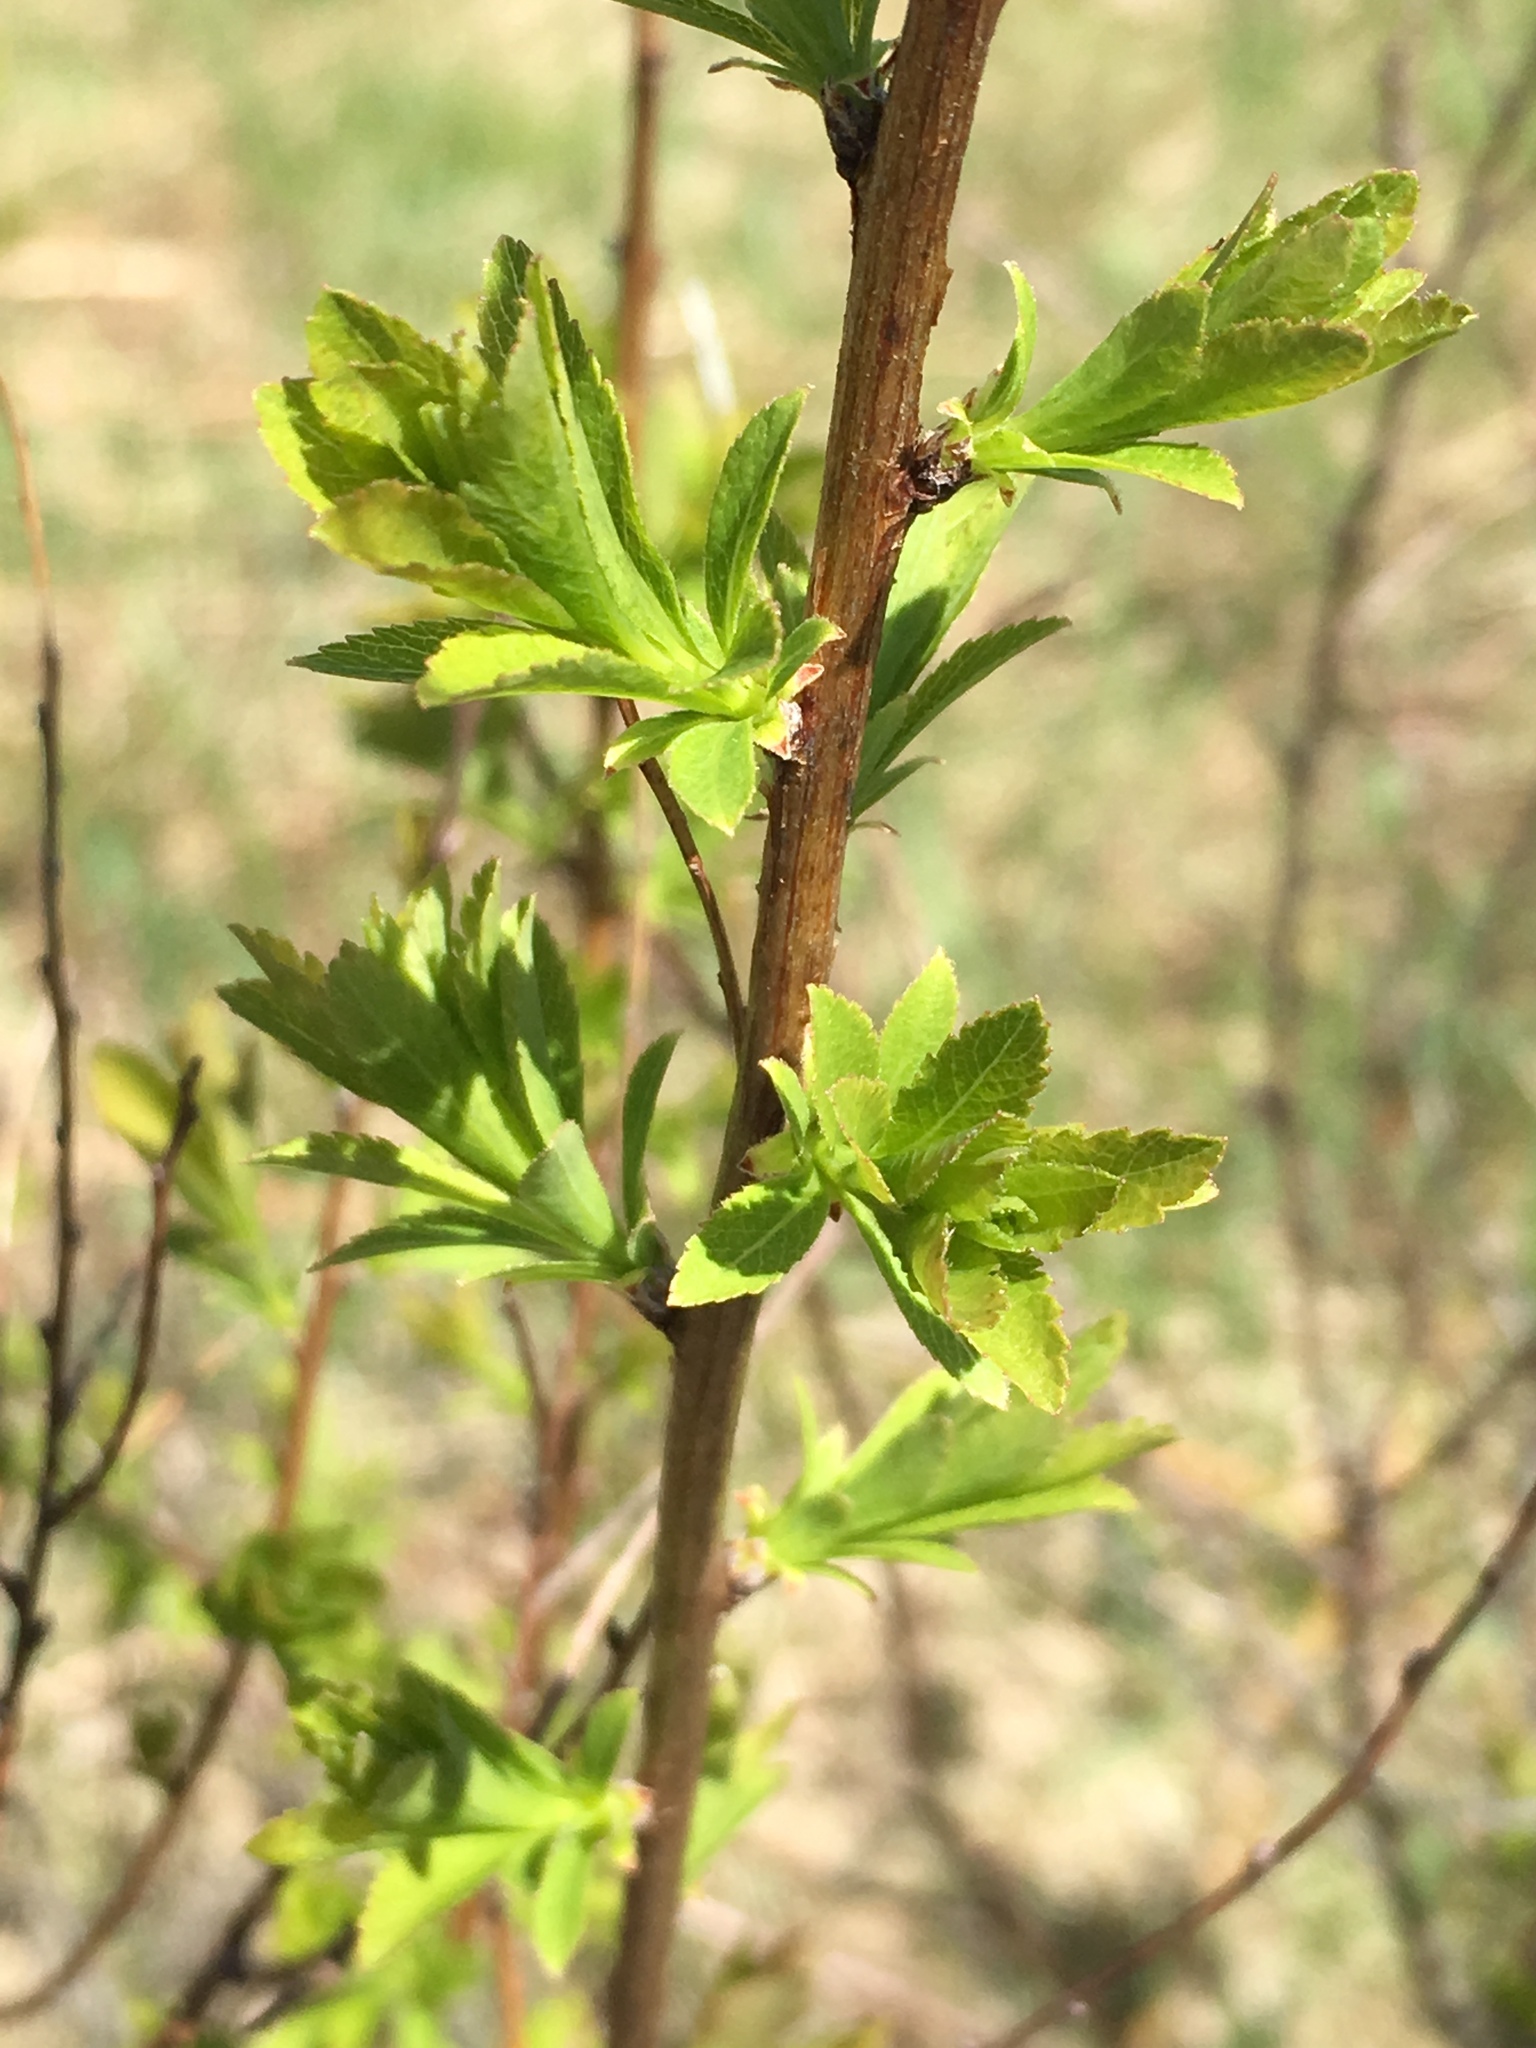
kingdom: Plantae
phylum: Tracheophyta
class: Magnoliopsida
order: Rosales
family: Rosaceae
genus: Spiraea
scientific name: Spiraea alba
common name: Pale bridewort
